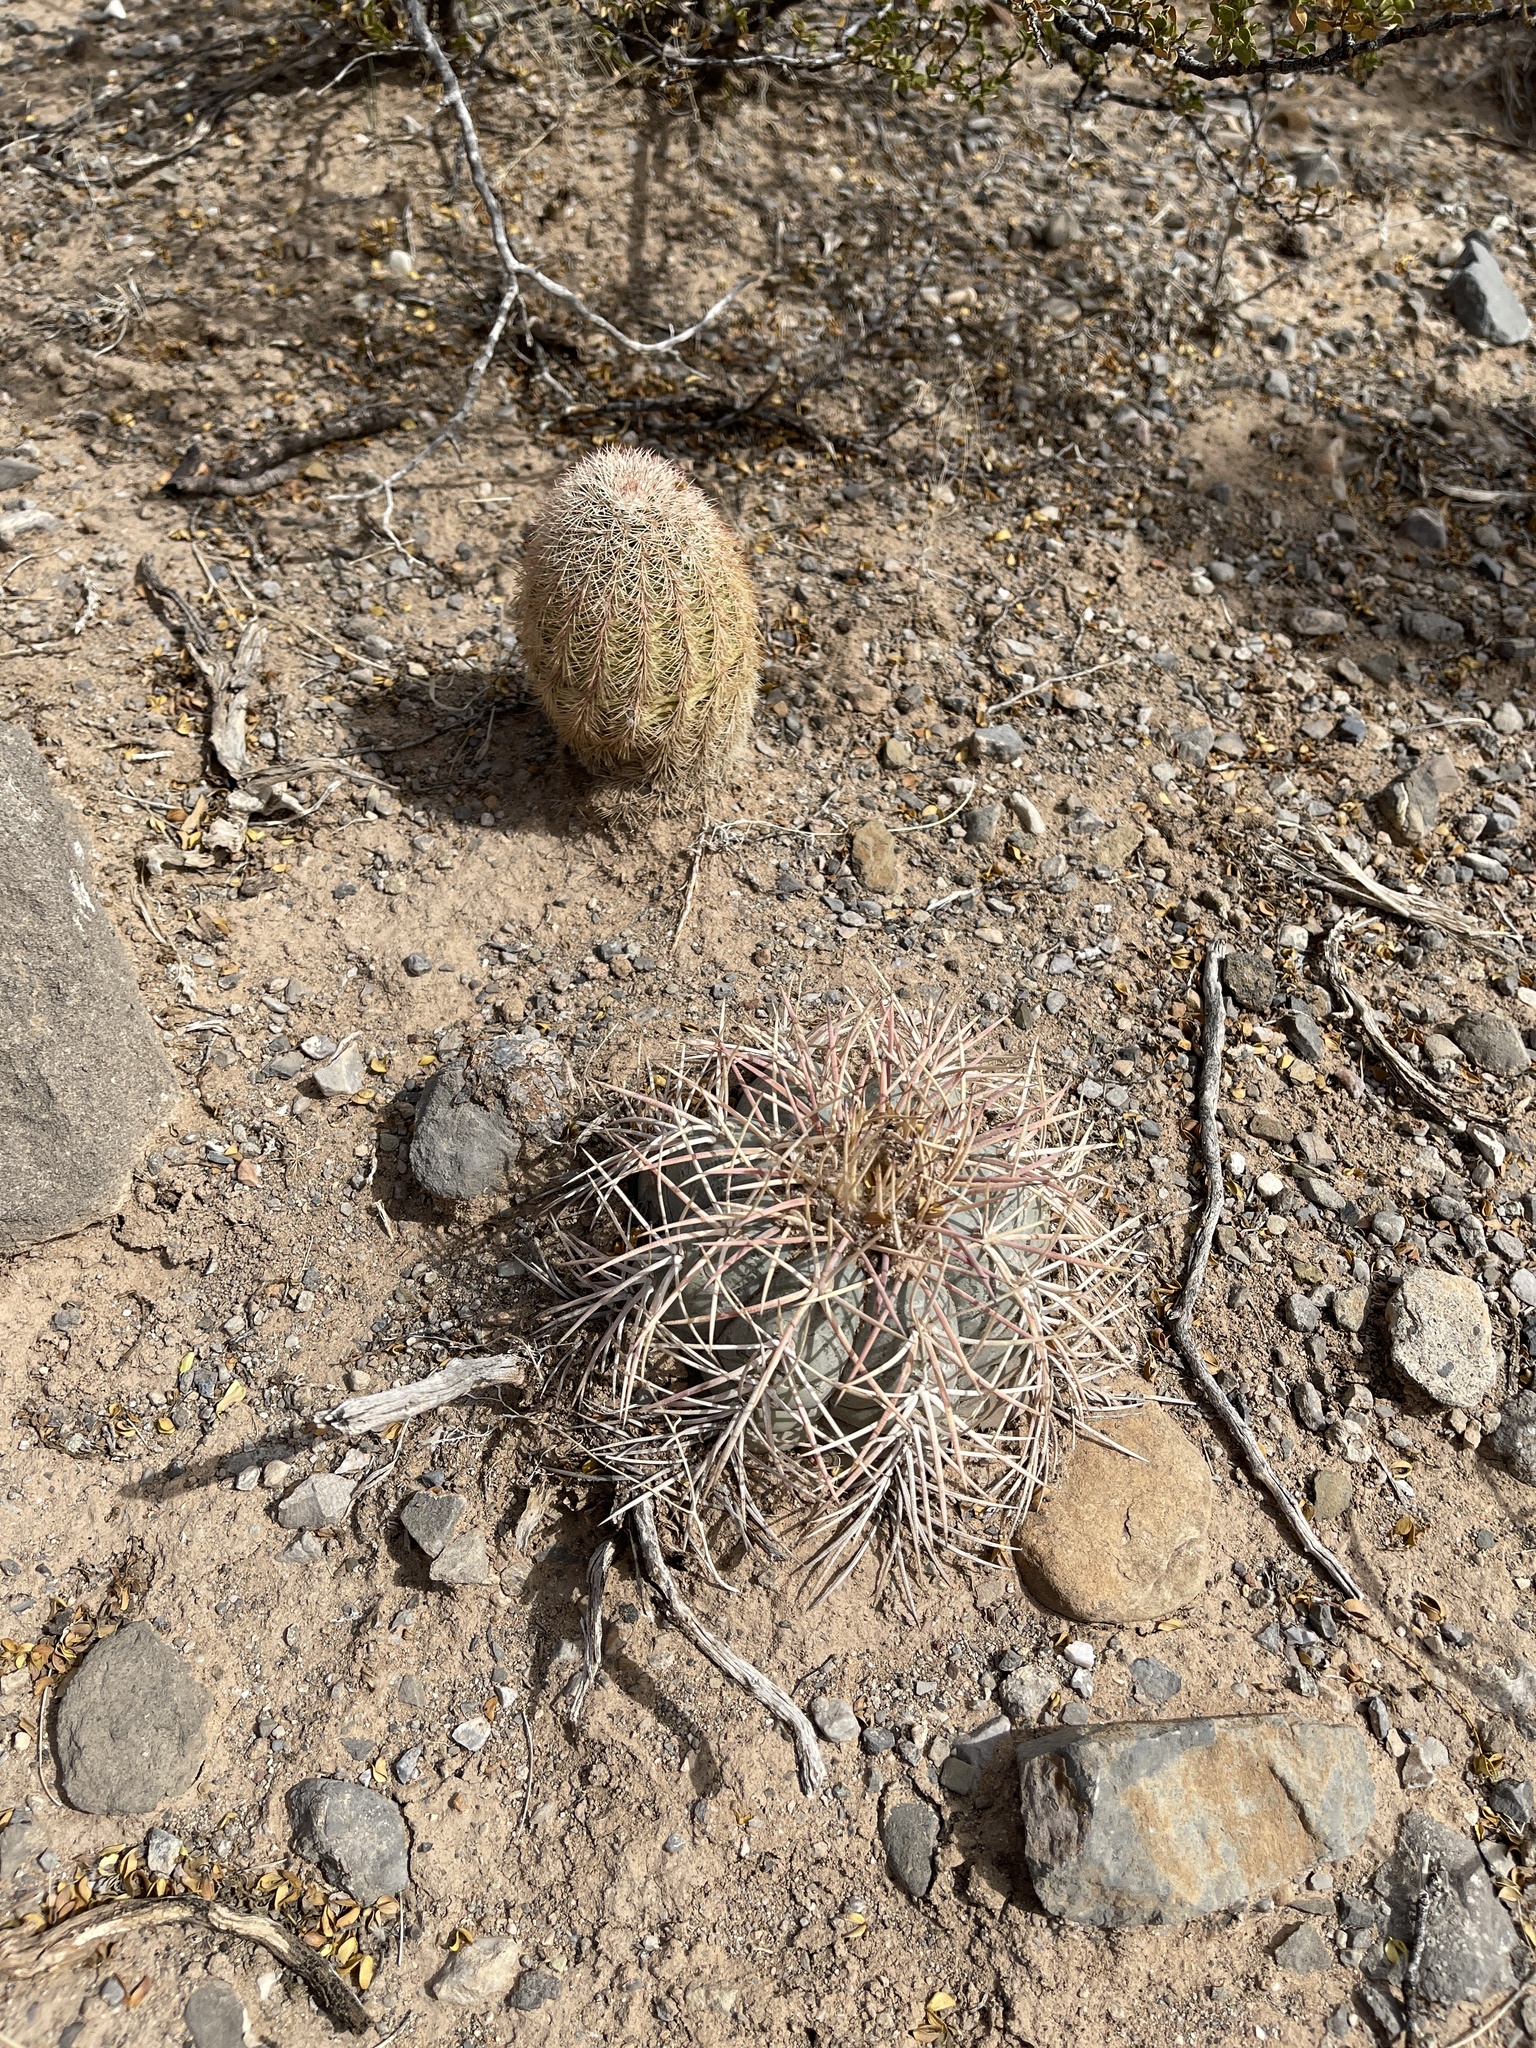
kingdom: Plantae
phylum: Tracheophyta
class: Magnoliopsida
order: Caryophyllales
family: Cactaceae
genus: Echinocactus
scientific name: Echinocactus horizonthalonius
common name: Devilshead
